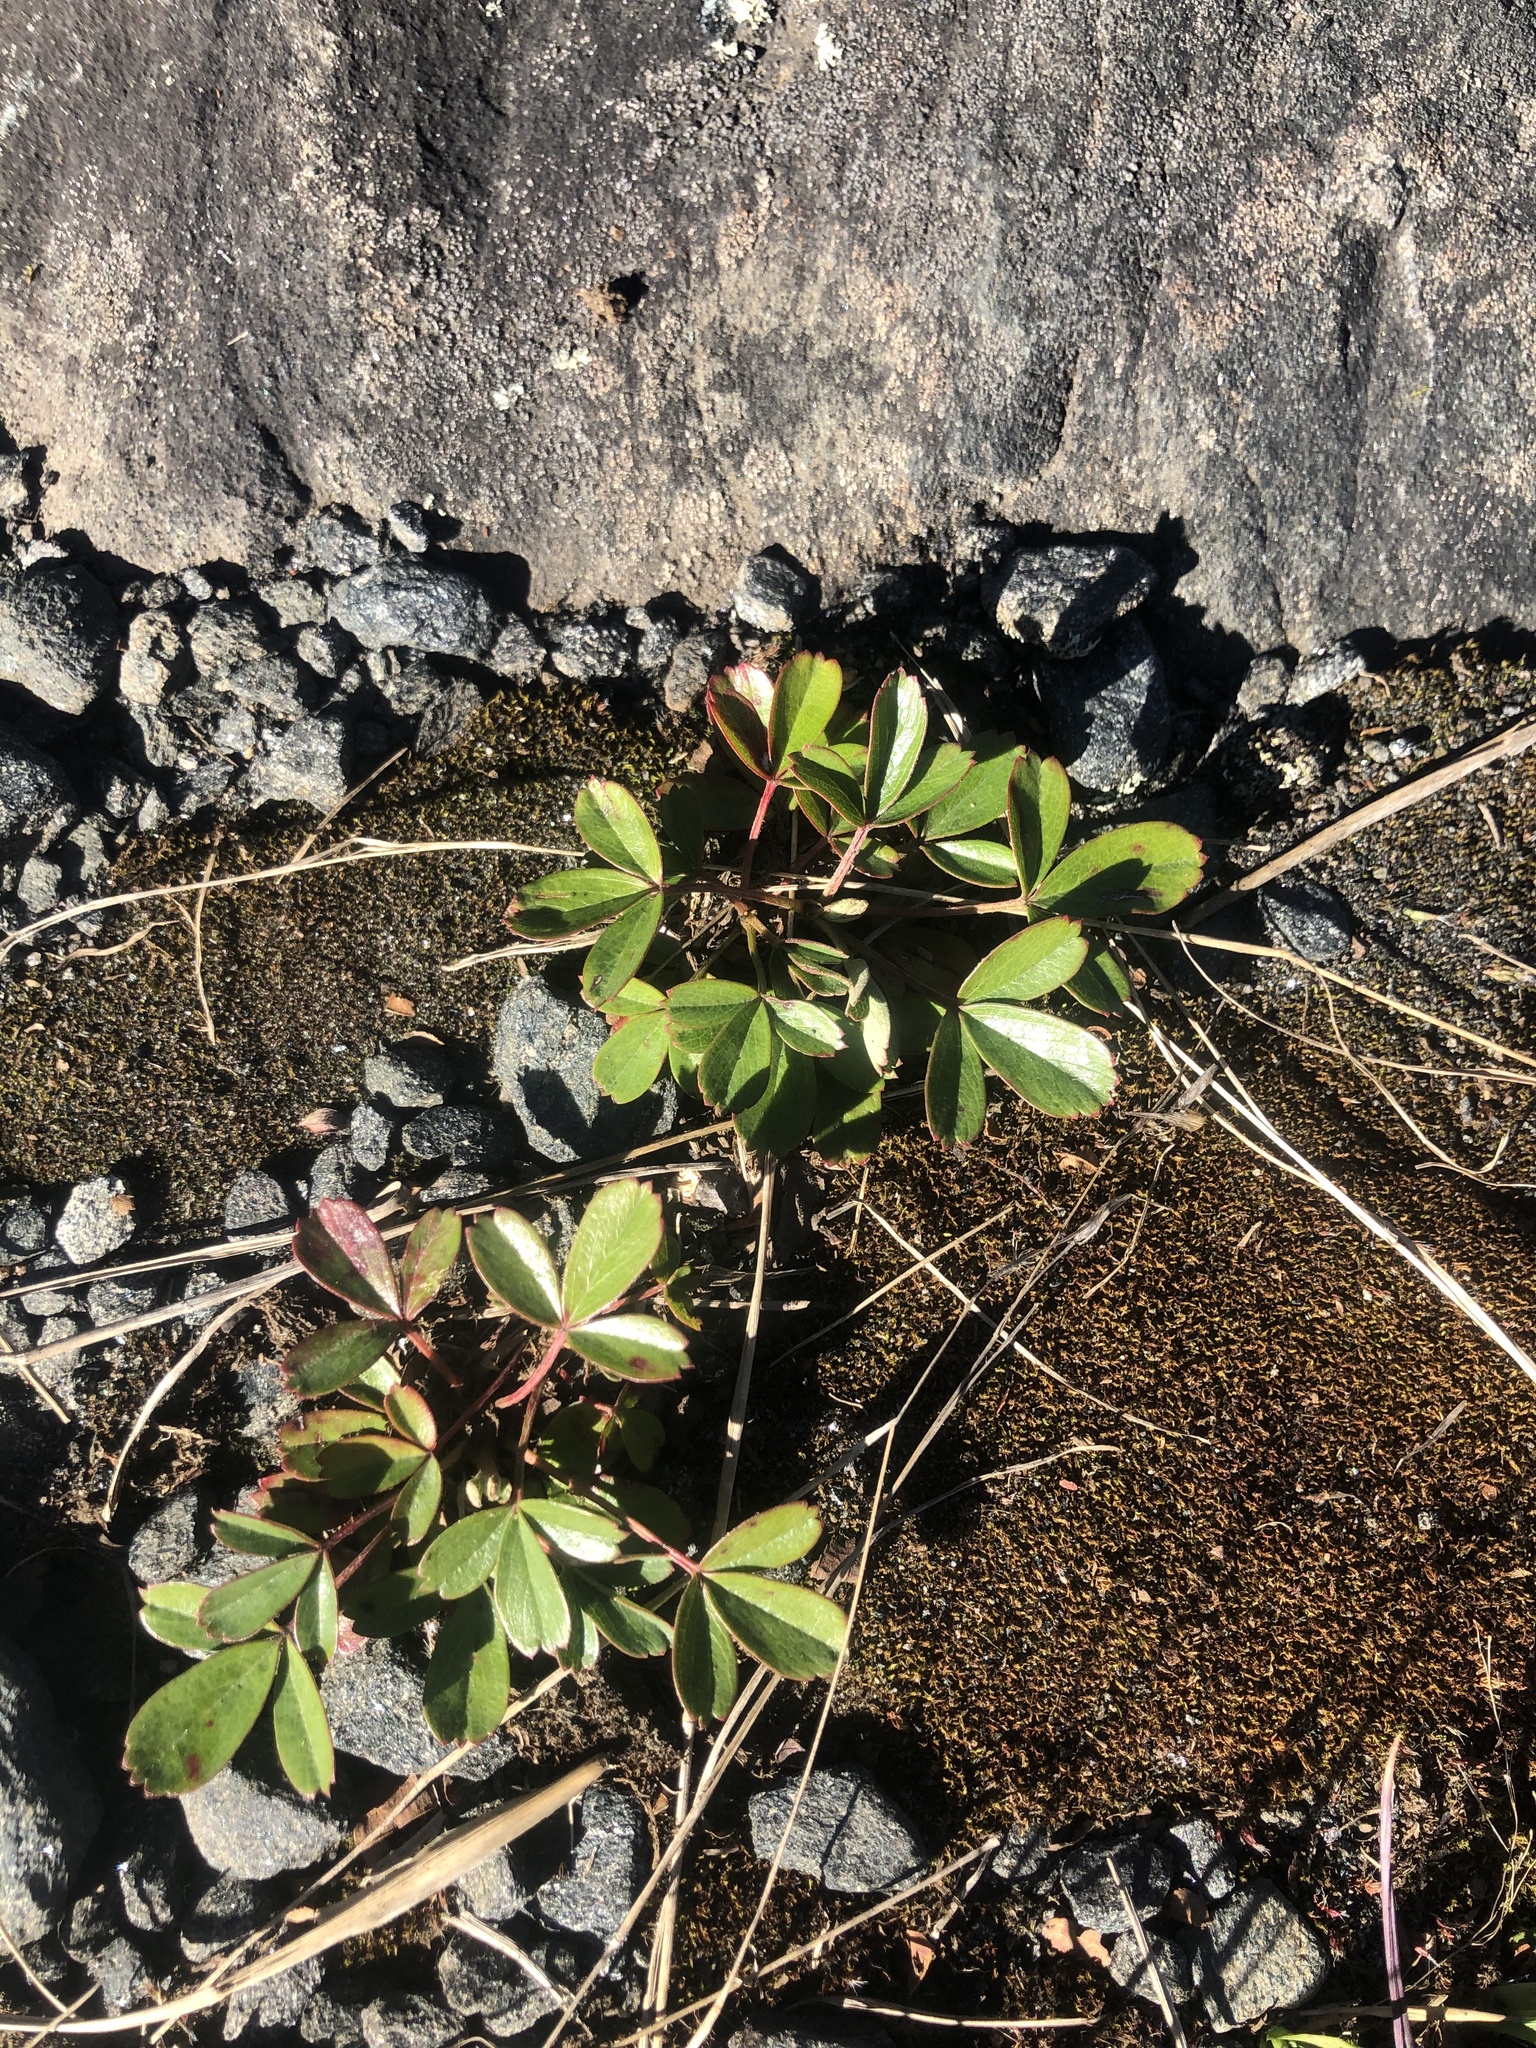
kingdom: Plantae
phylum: Tracheophyta
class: Magnoliopsida
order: Rosales
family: Rosaceae
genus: Sibbaldia
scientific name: Sibbaldia tridentata
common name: Three-toothed cinquefoil
